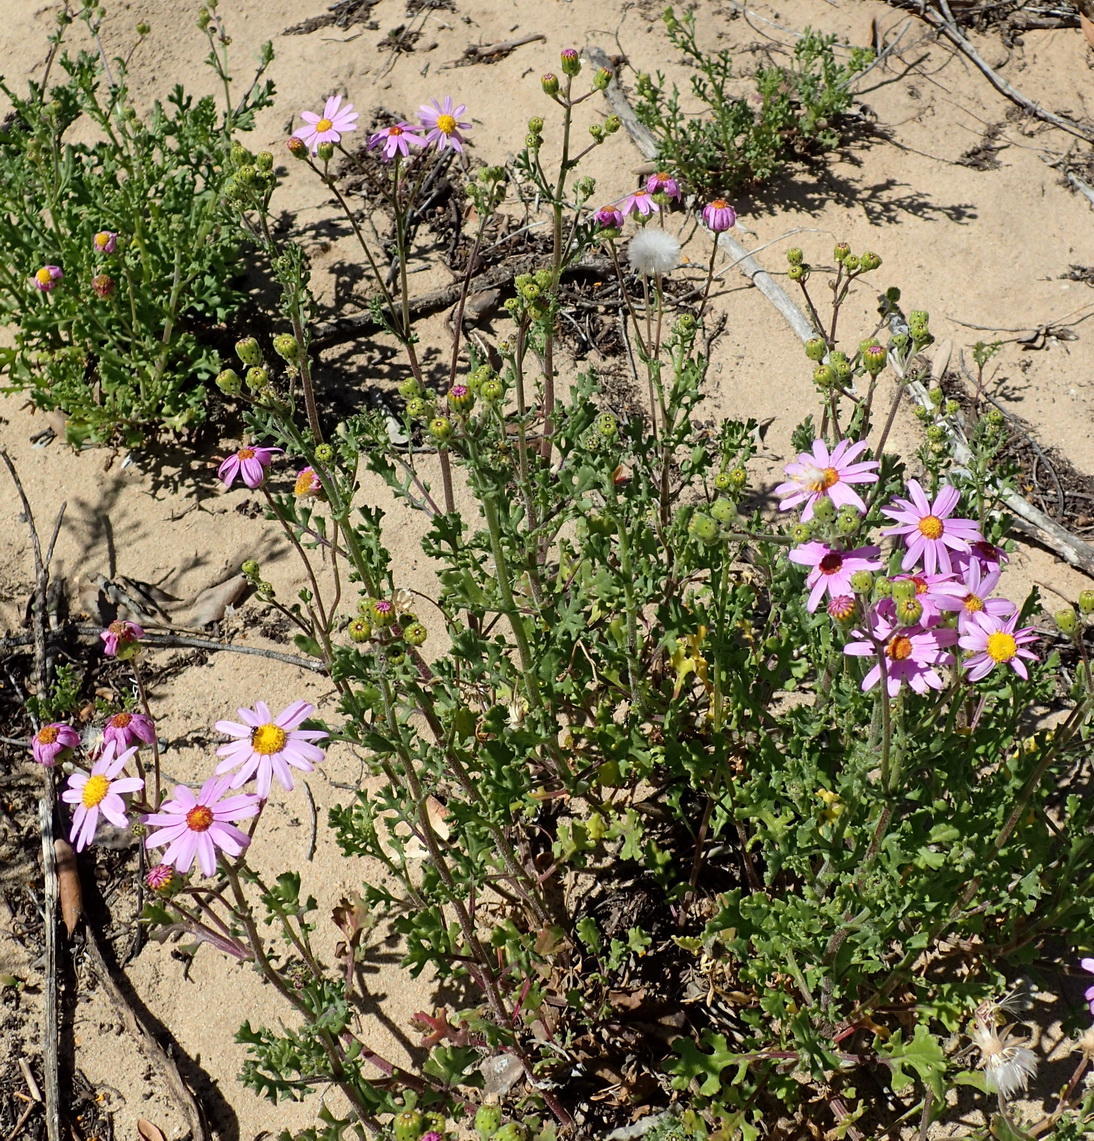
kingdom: Plantae
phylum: Tracheophyta
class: Magnoliopsida
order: Asterales
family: Asteraceae
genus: Senecio
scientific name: Senecio elegans
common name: Purple groundsel
